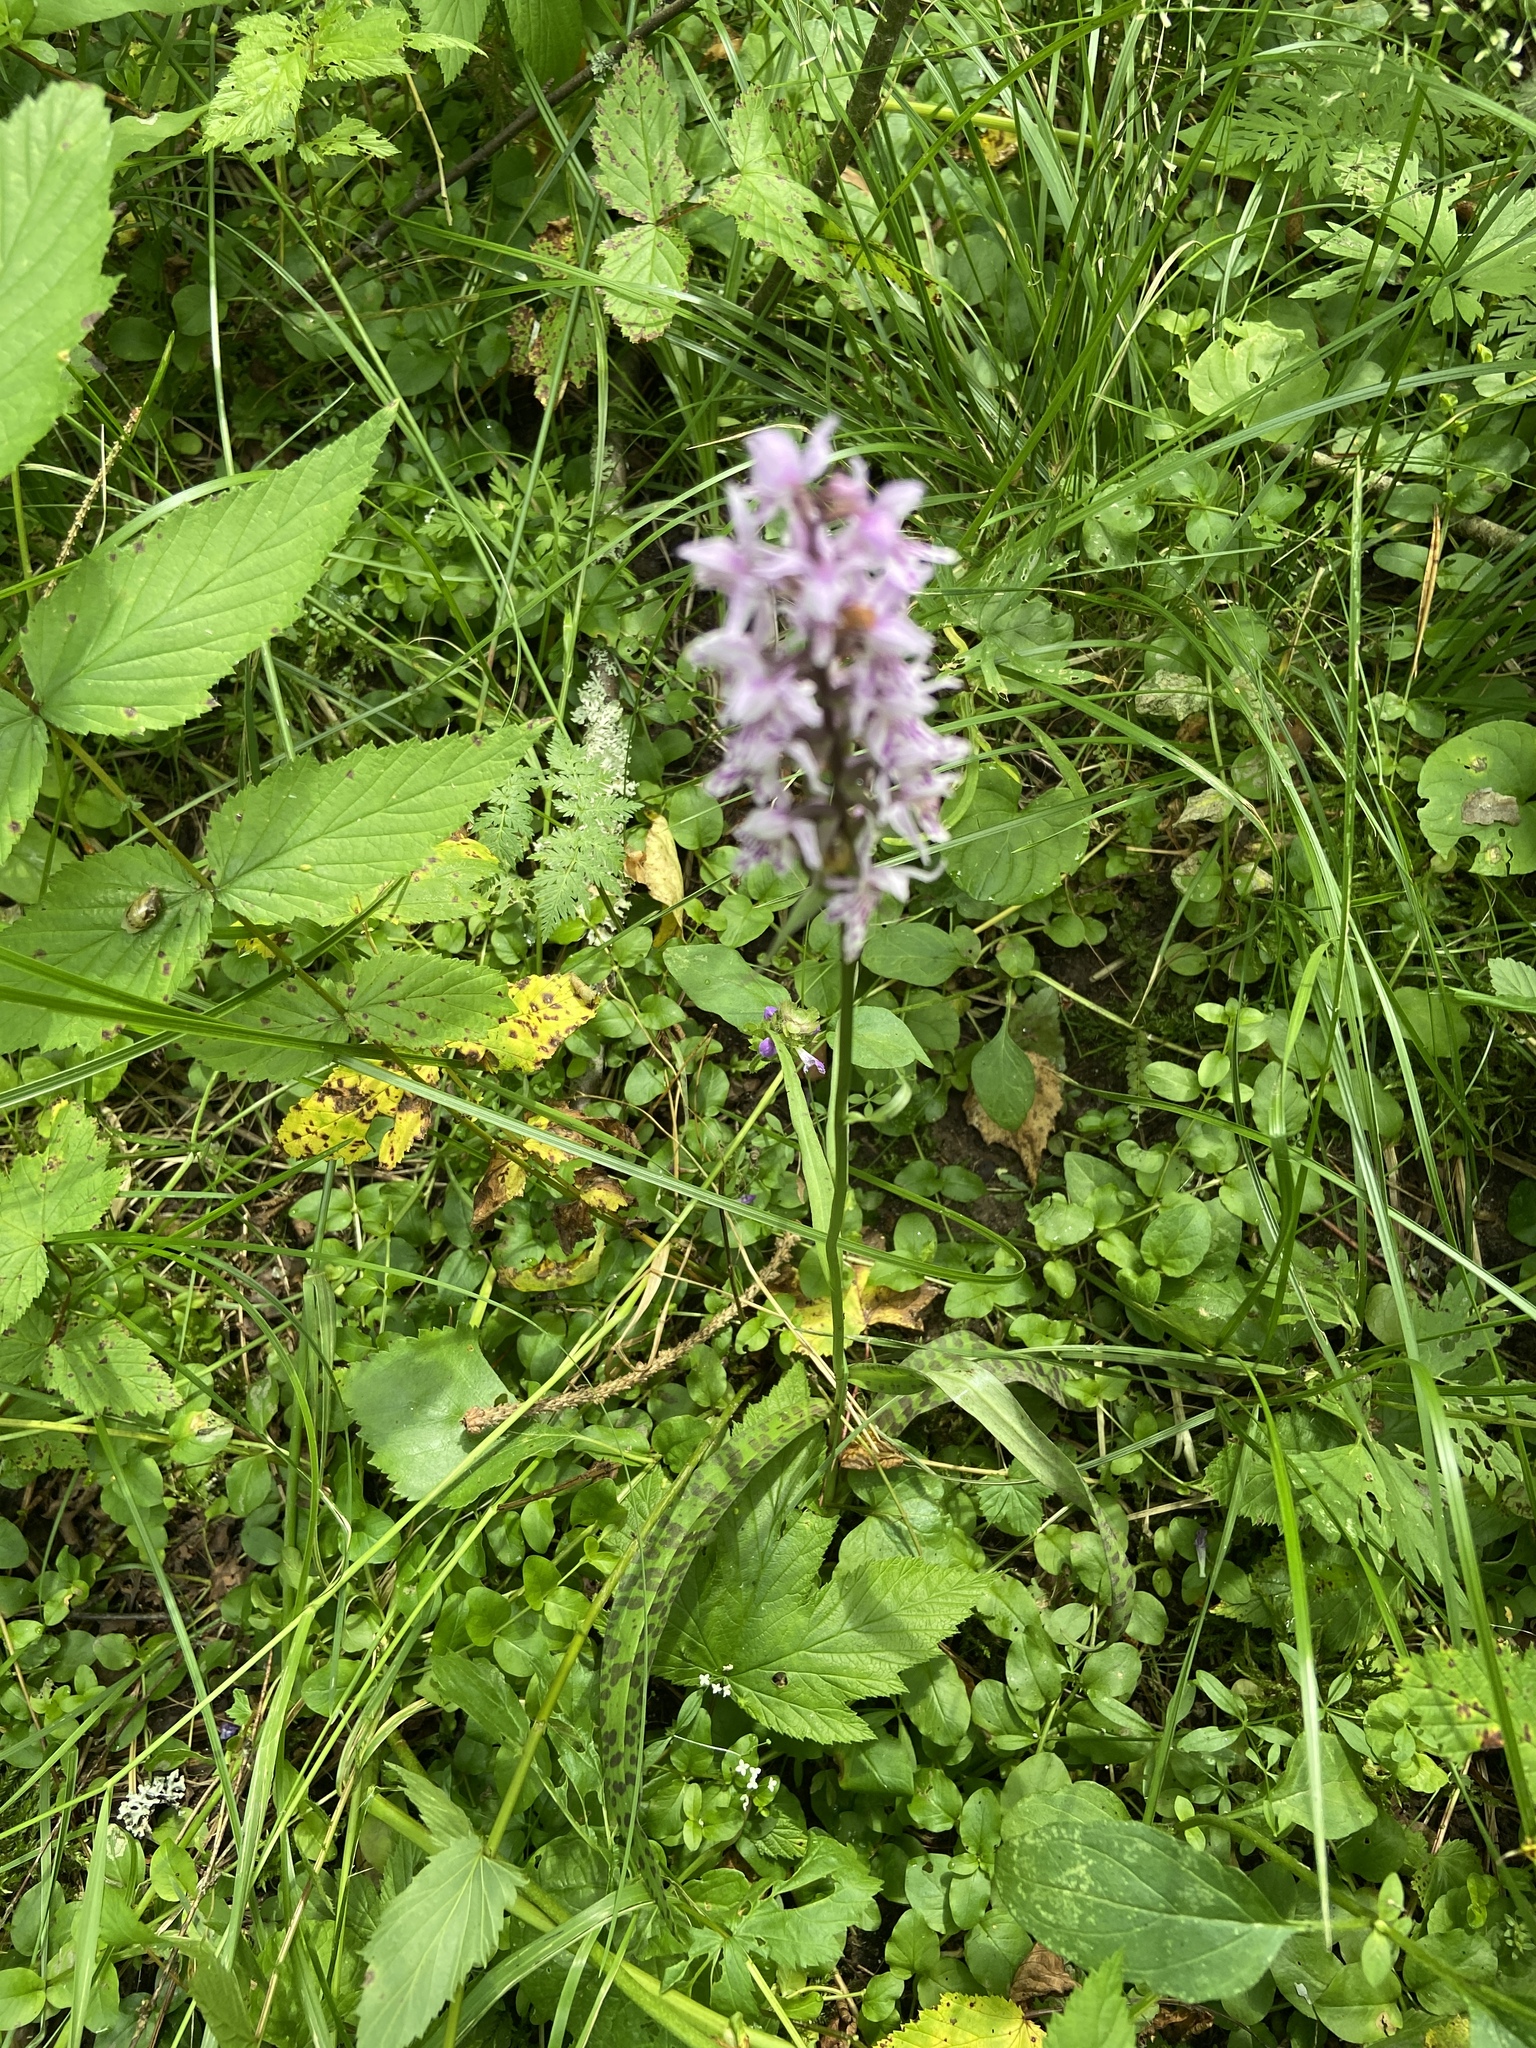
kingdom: Plantae
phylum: Tracheophyta
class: Liliopsida
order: Asparagales
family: Orchidaceae
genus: Dactylorhiza
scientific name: Dactylorhiza maculata
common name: Heath spotted-orchid
